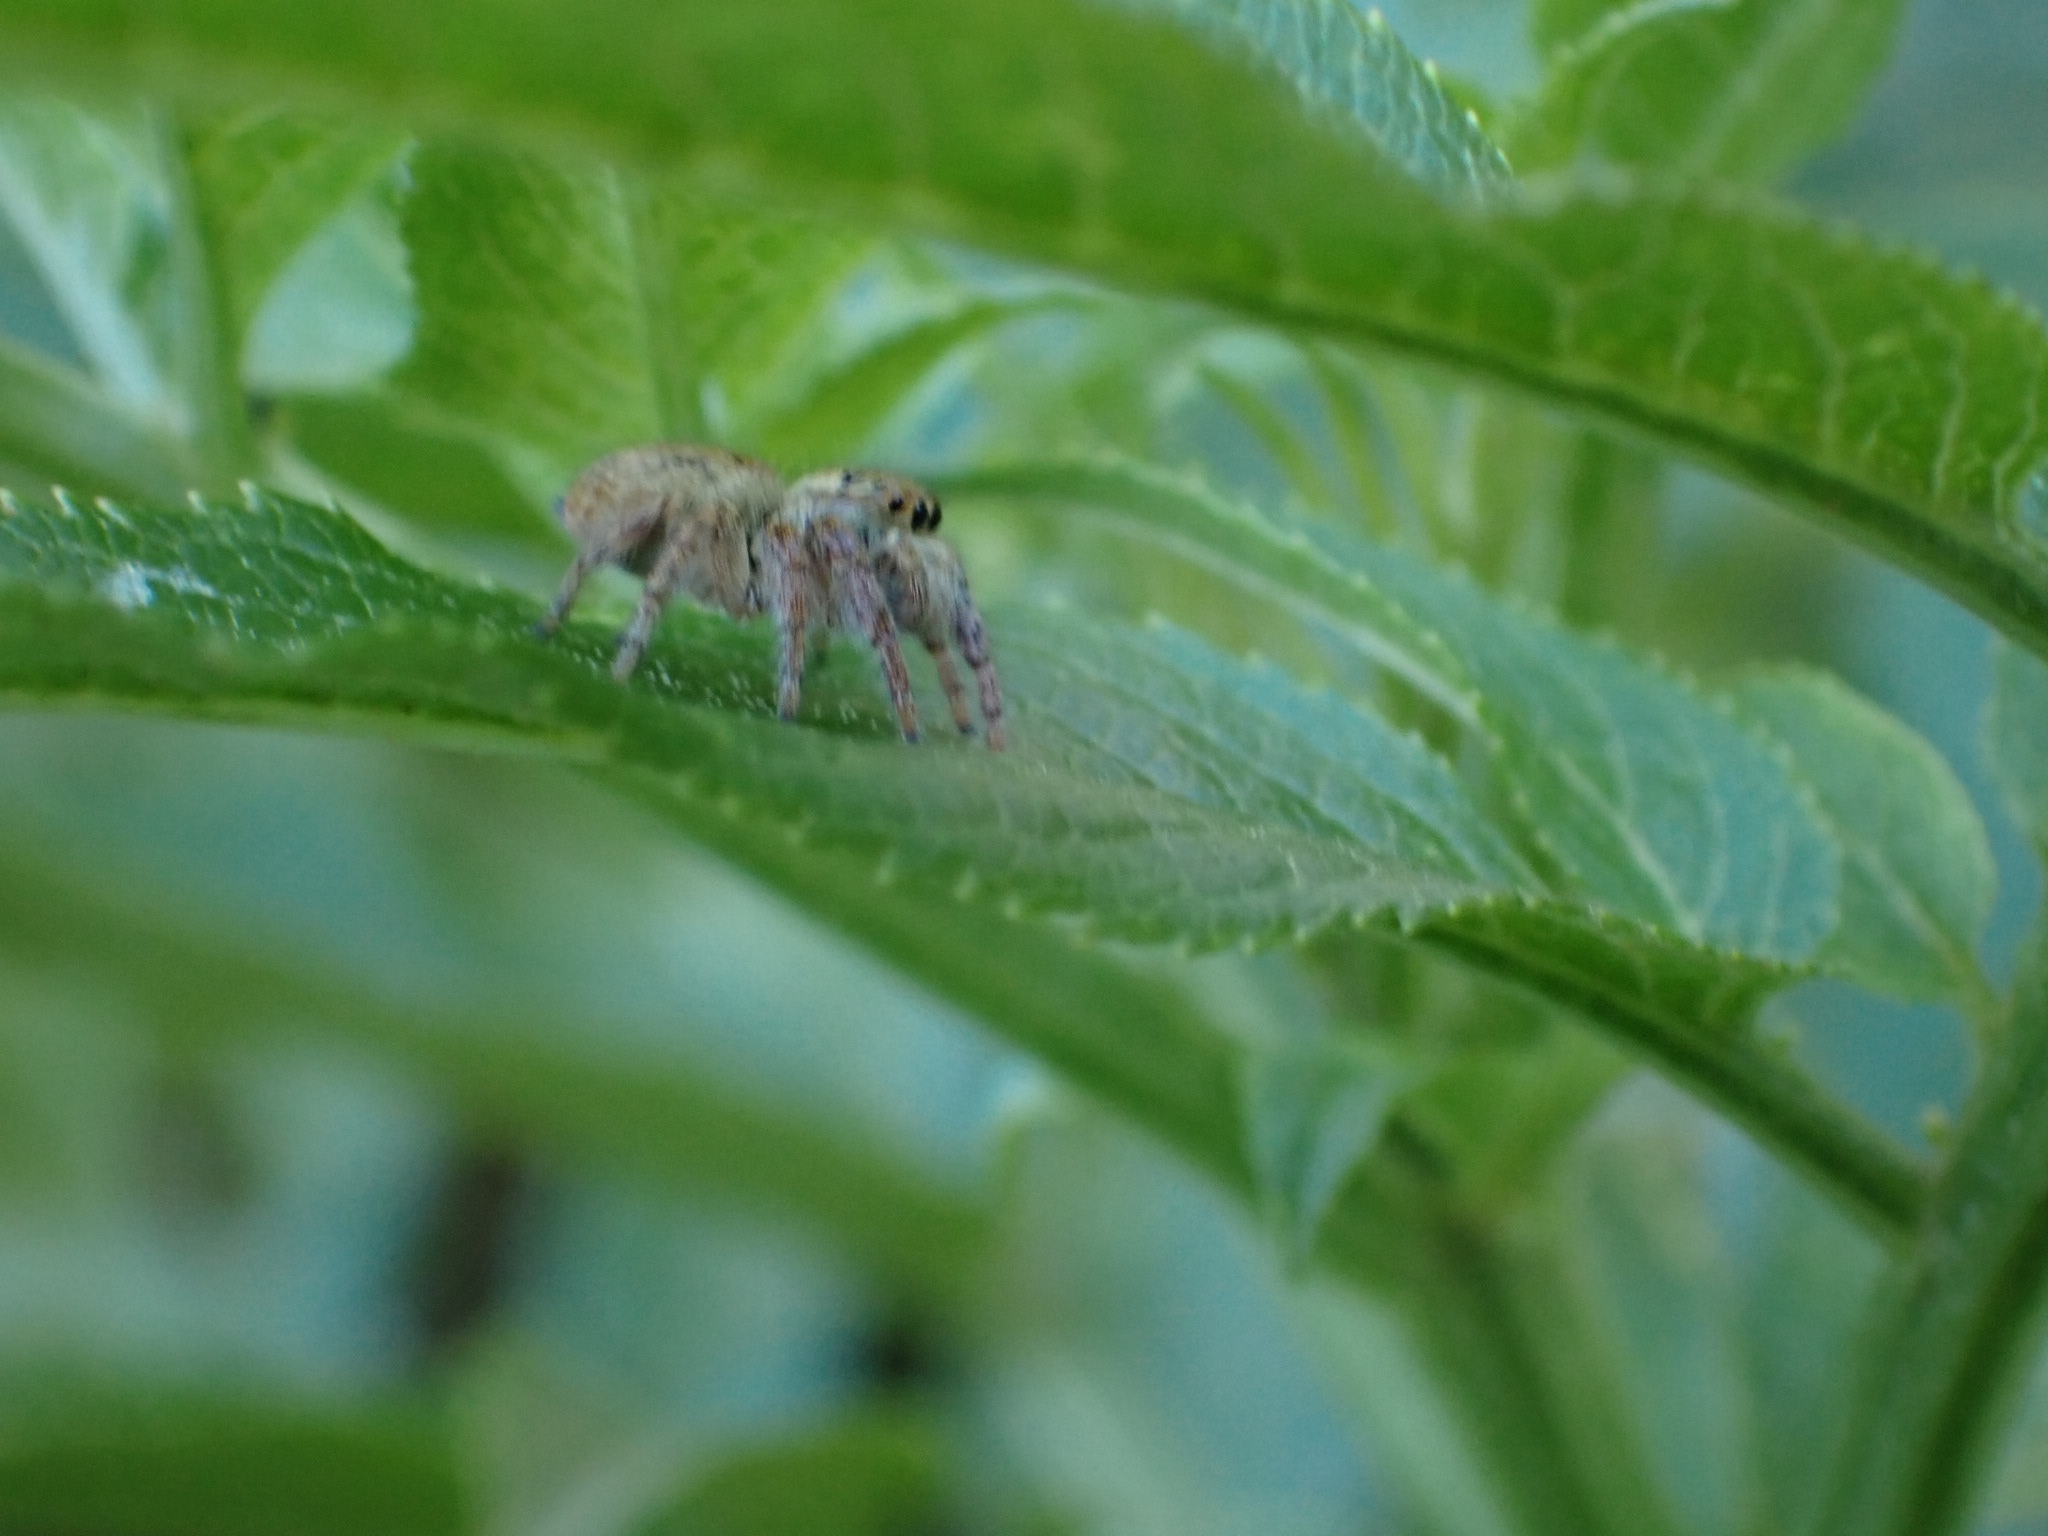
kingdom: Animalia
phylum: Arthropoda
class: Arachnida
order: Araneae
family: Salticidae
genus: Carrhotus
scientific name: Carrhotus xanthogramma
